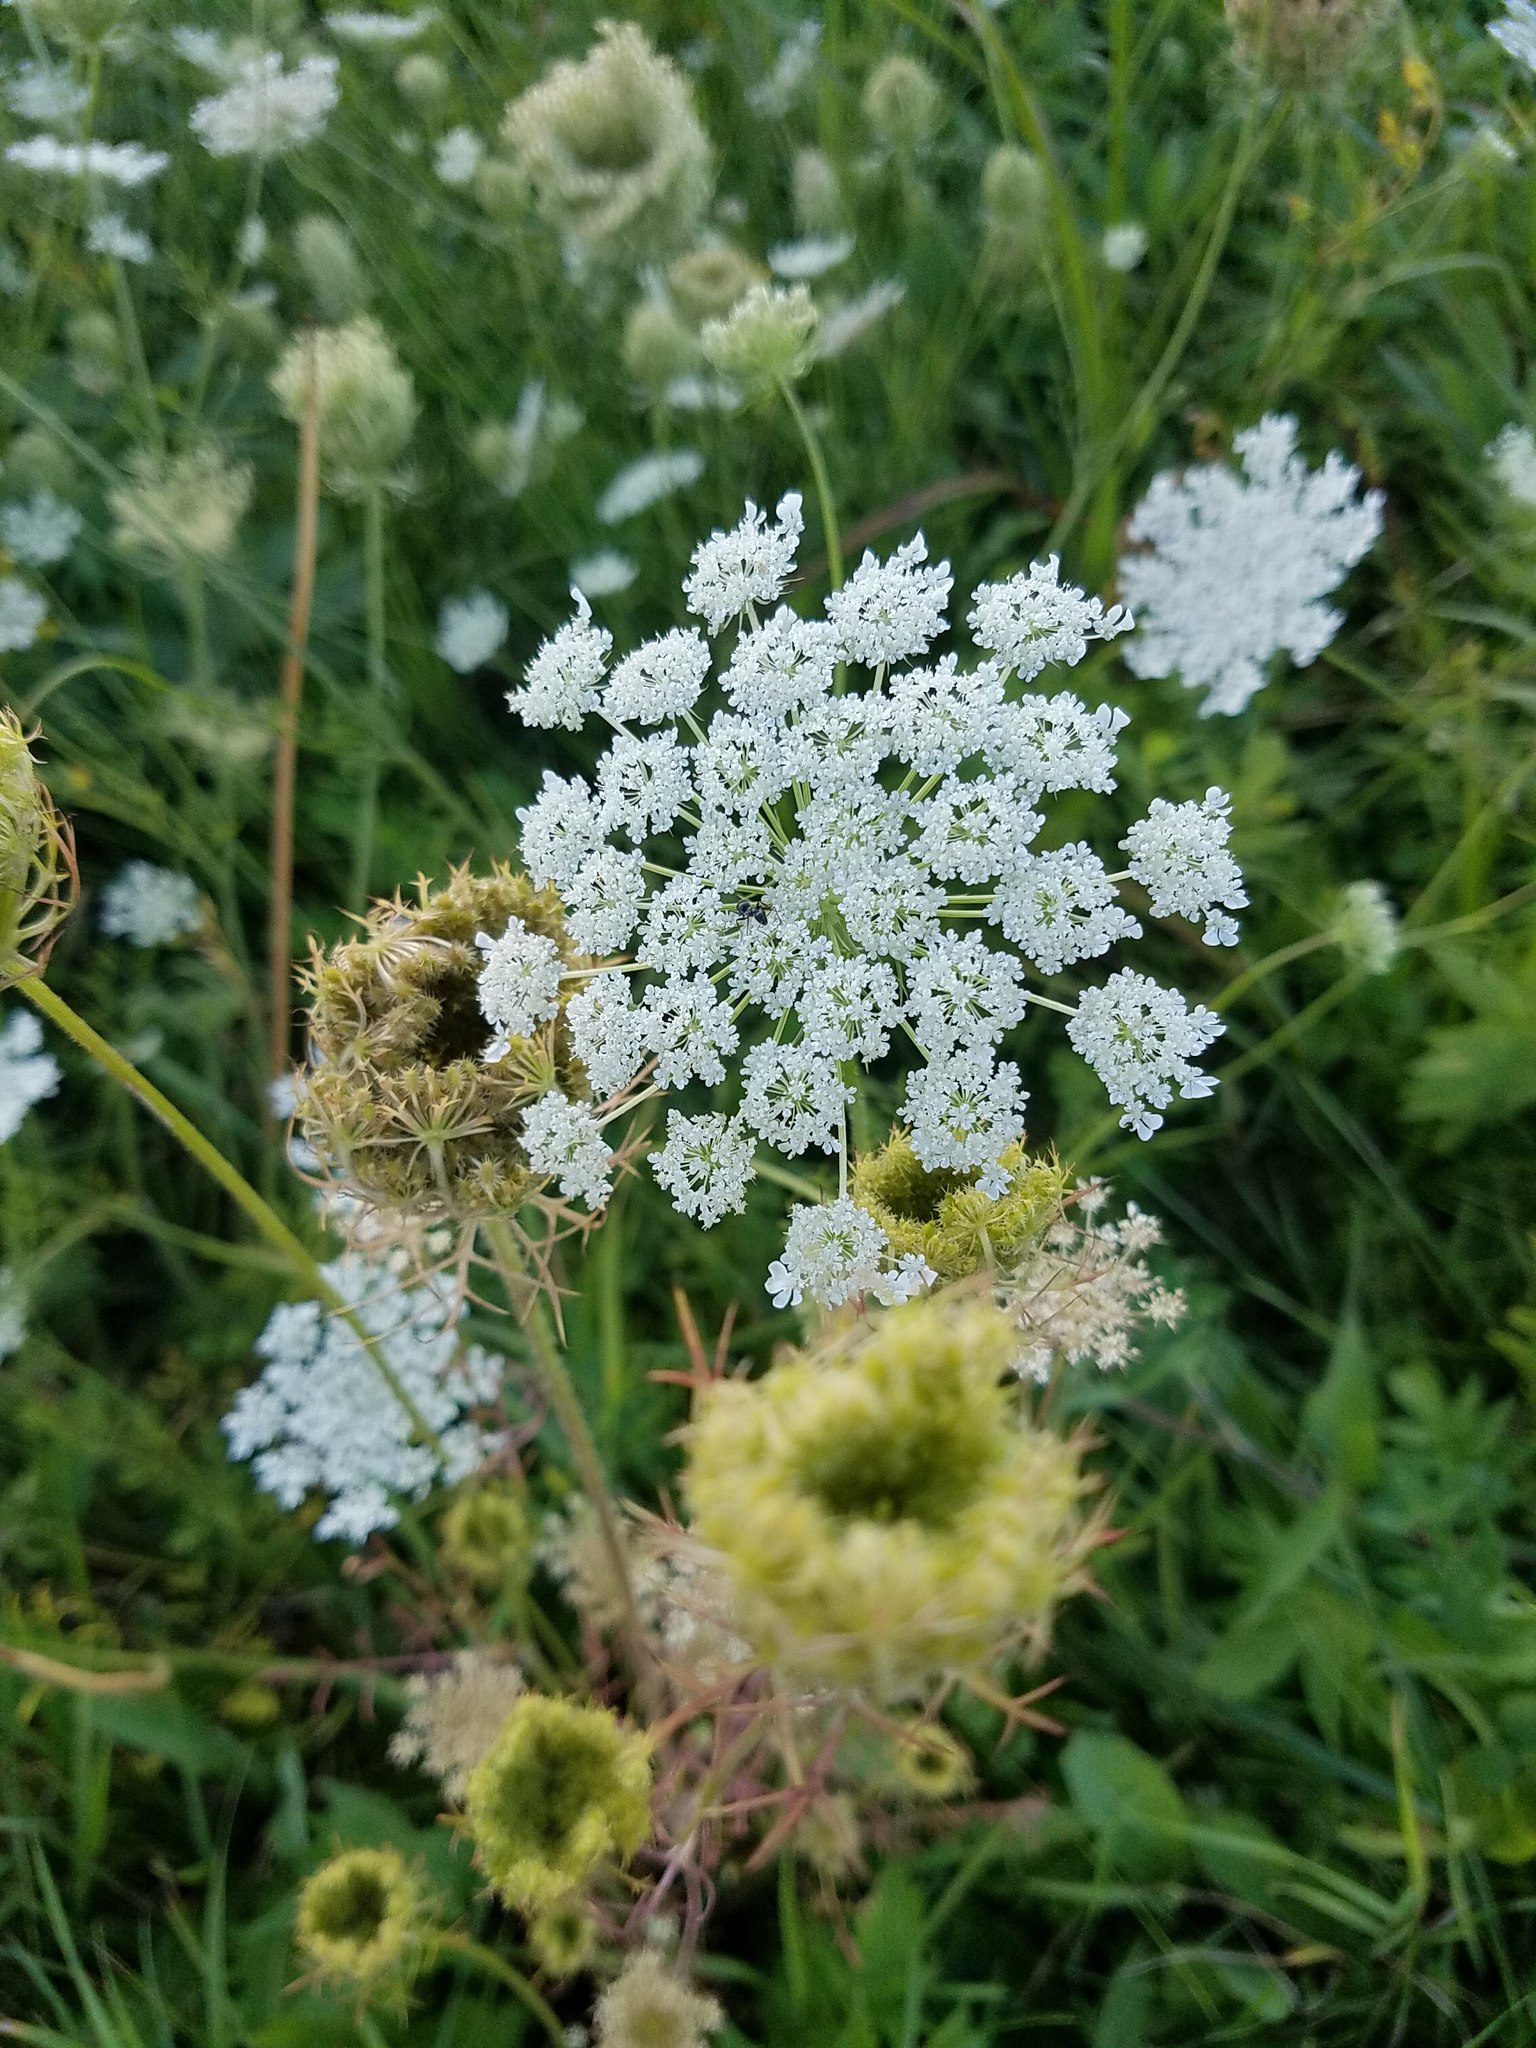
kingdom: Plantae
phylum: Tracheophyta
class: Magnoliopsida
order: Apiales
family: Apiaceae
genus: Daucus
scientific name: Daucus carota
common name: Wild carrot
